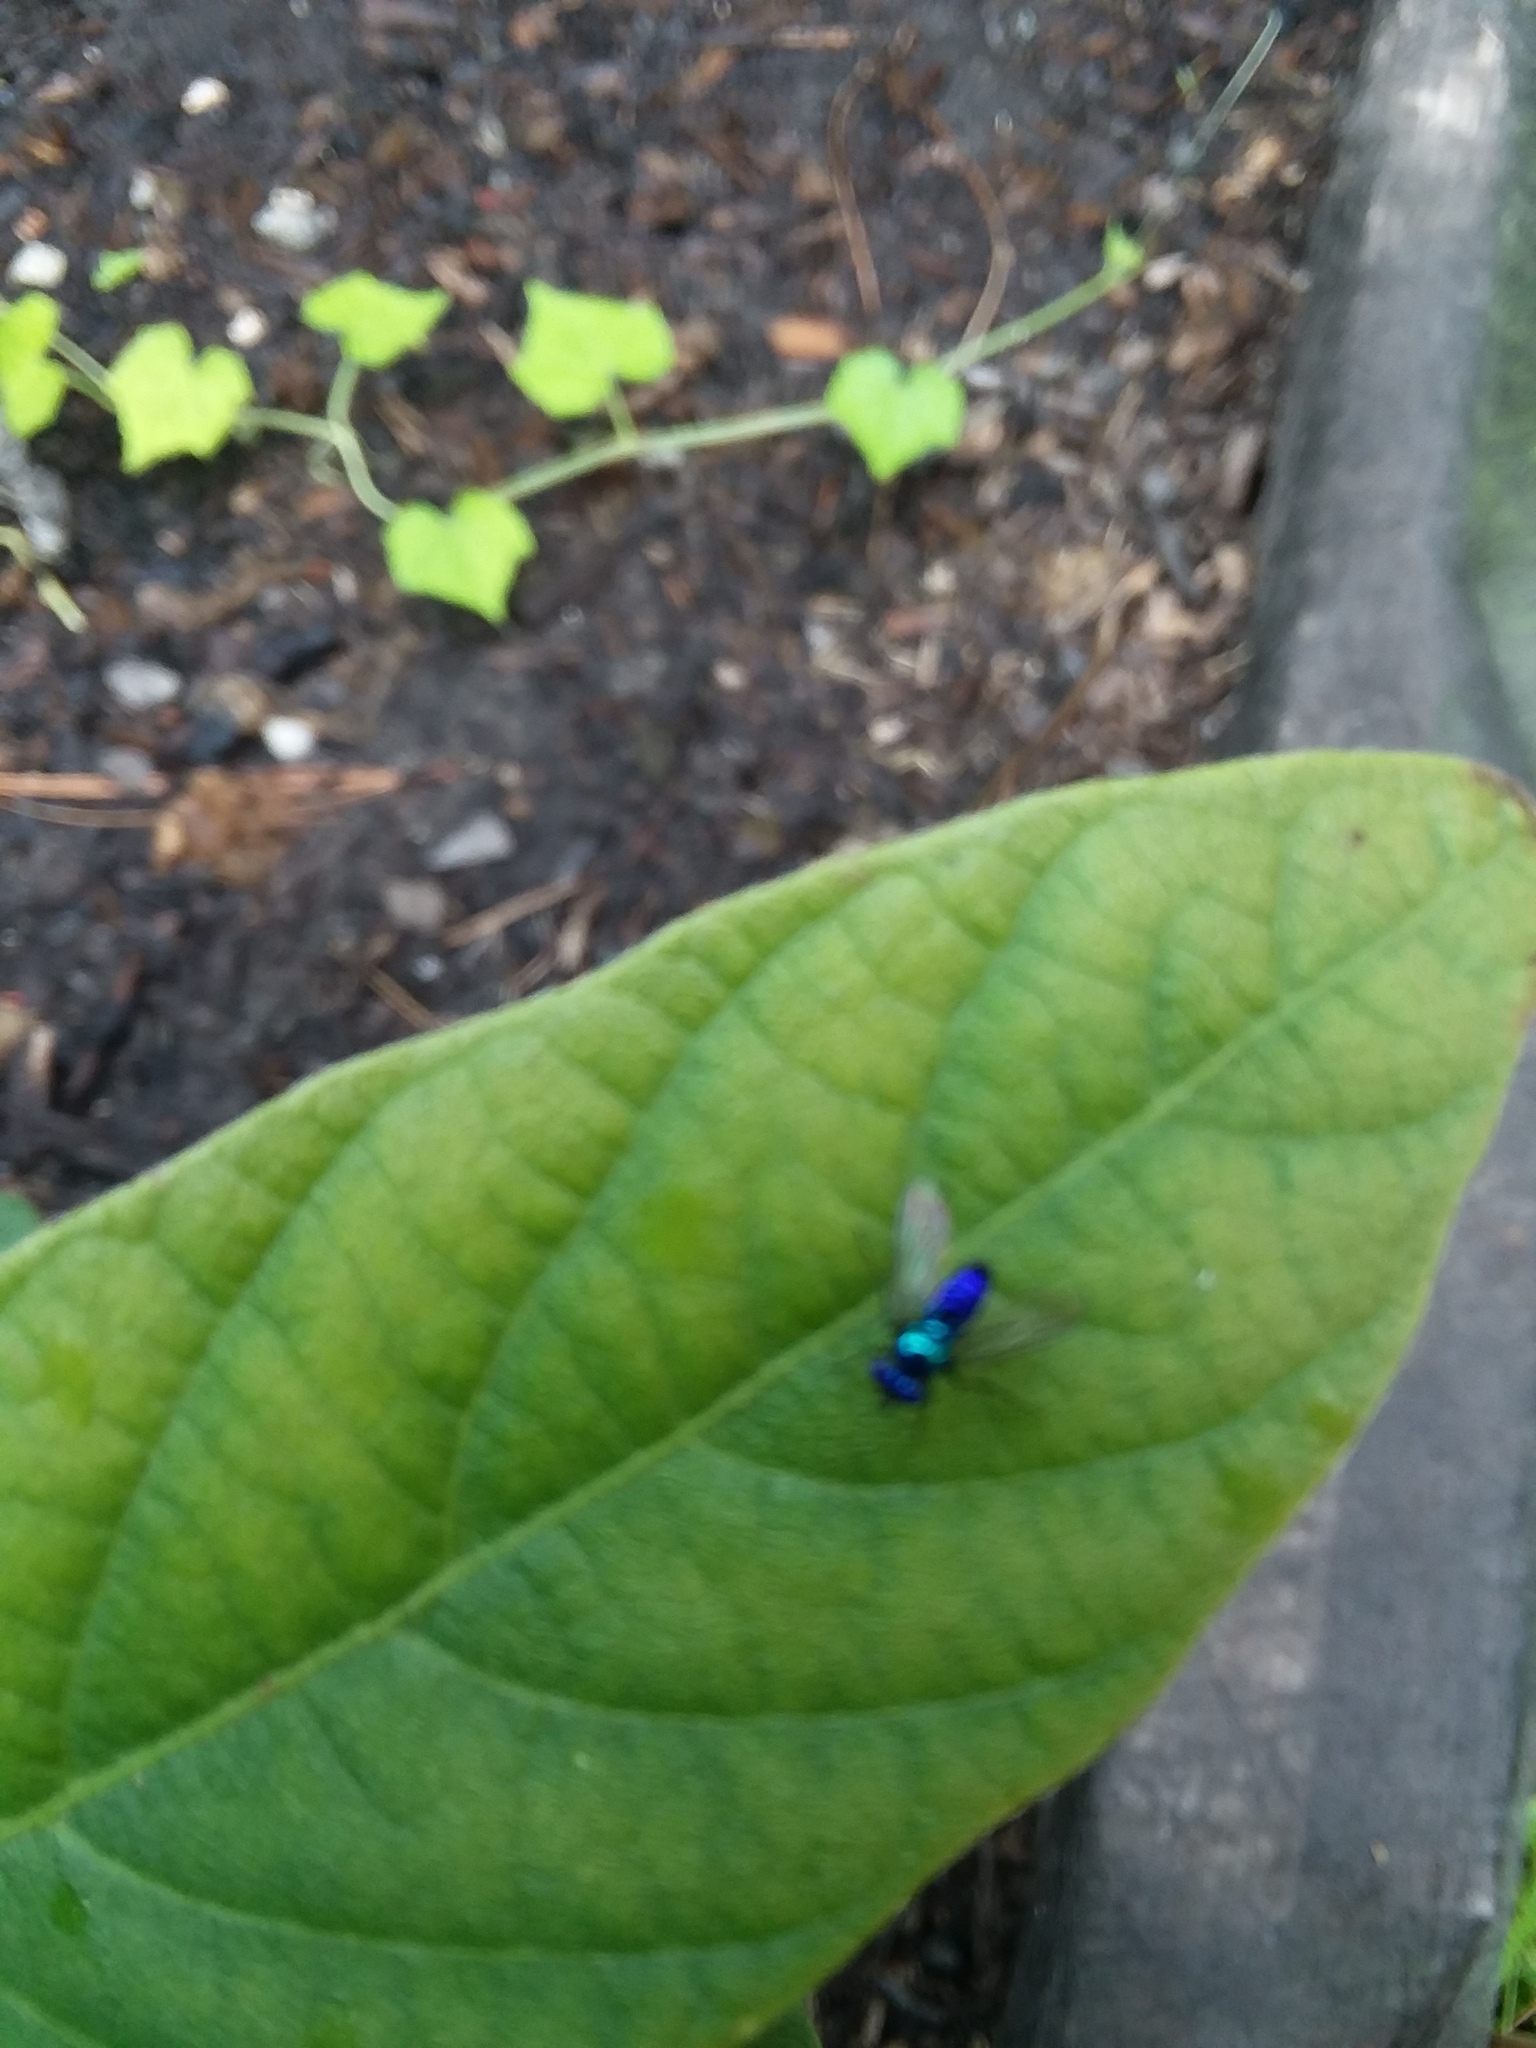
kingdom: Animalia
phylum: Arthropoda
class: Insecta
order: Diptera
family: Dolichopodidae
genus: Condylostylus
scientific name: Condylostylus mundus
